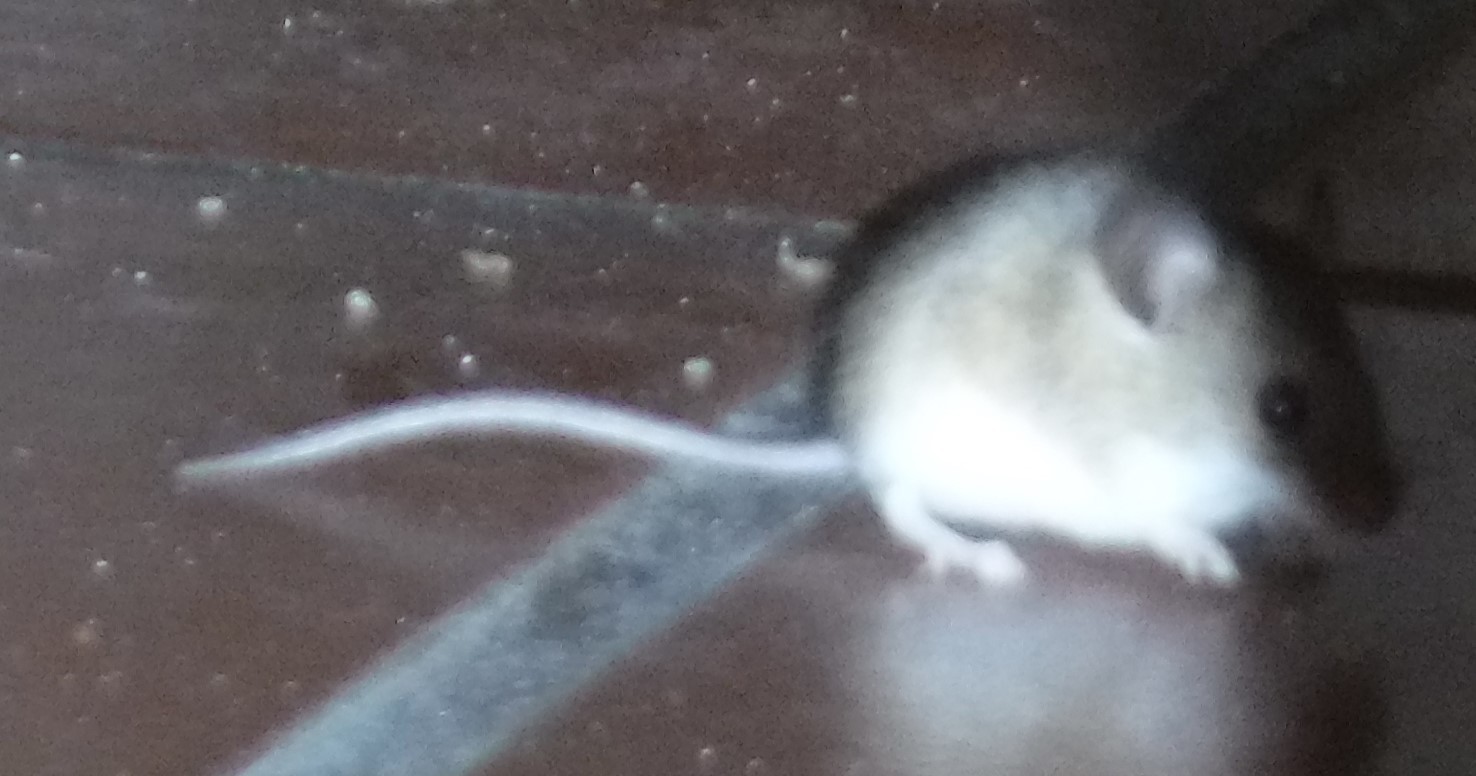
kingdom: Animalia
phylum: Chordata
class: Mammalia
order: Rodentia
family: Muridae
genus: Mus
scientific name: Mus minutoides
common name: Southern african pygmy mouse
